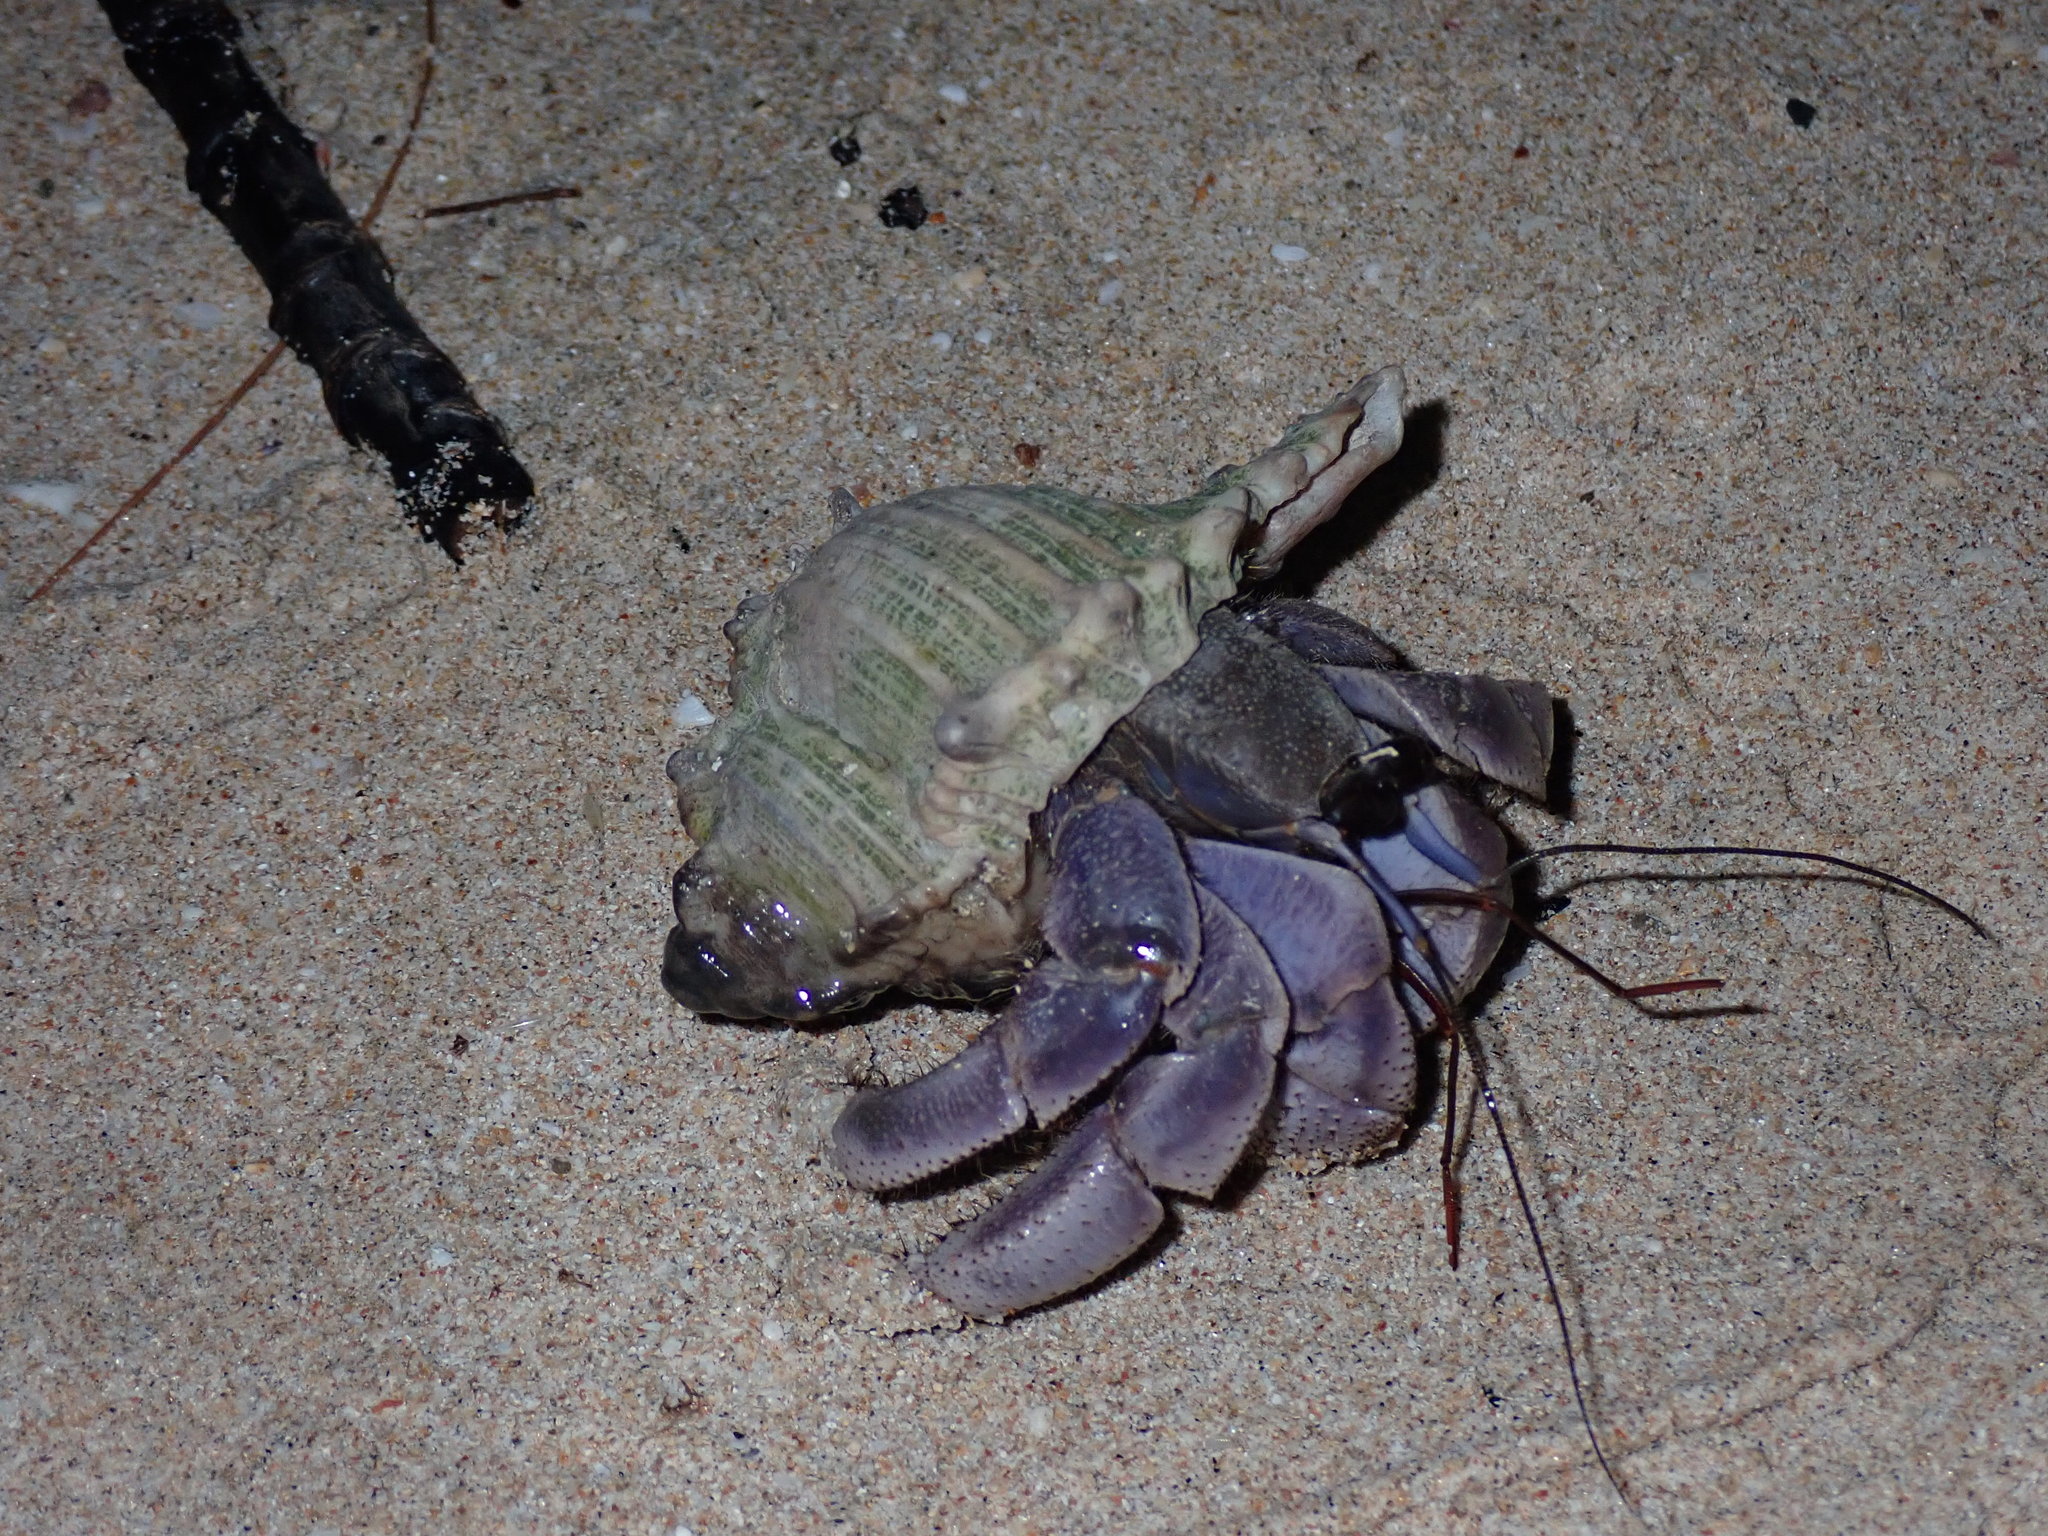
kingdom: Animalia
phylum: Arthropoda
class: Malacostraca
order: Decapoda
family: Coenobitidae
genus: Coenobita
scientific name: Coenobita violascens
